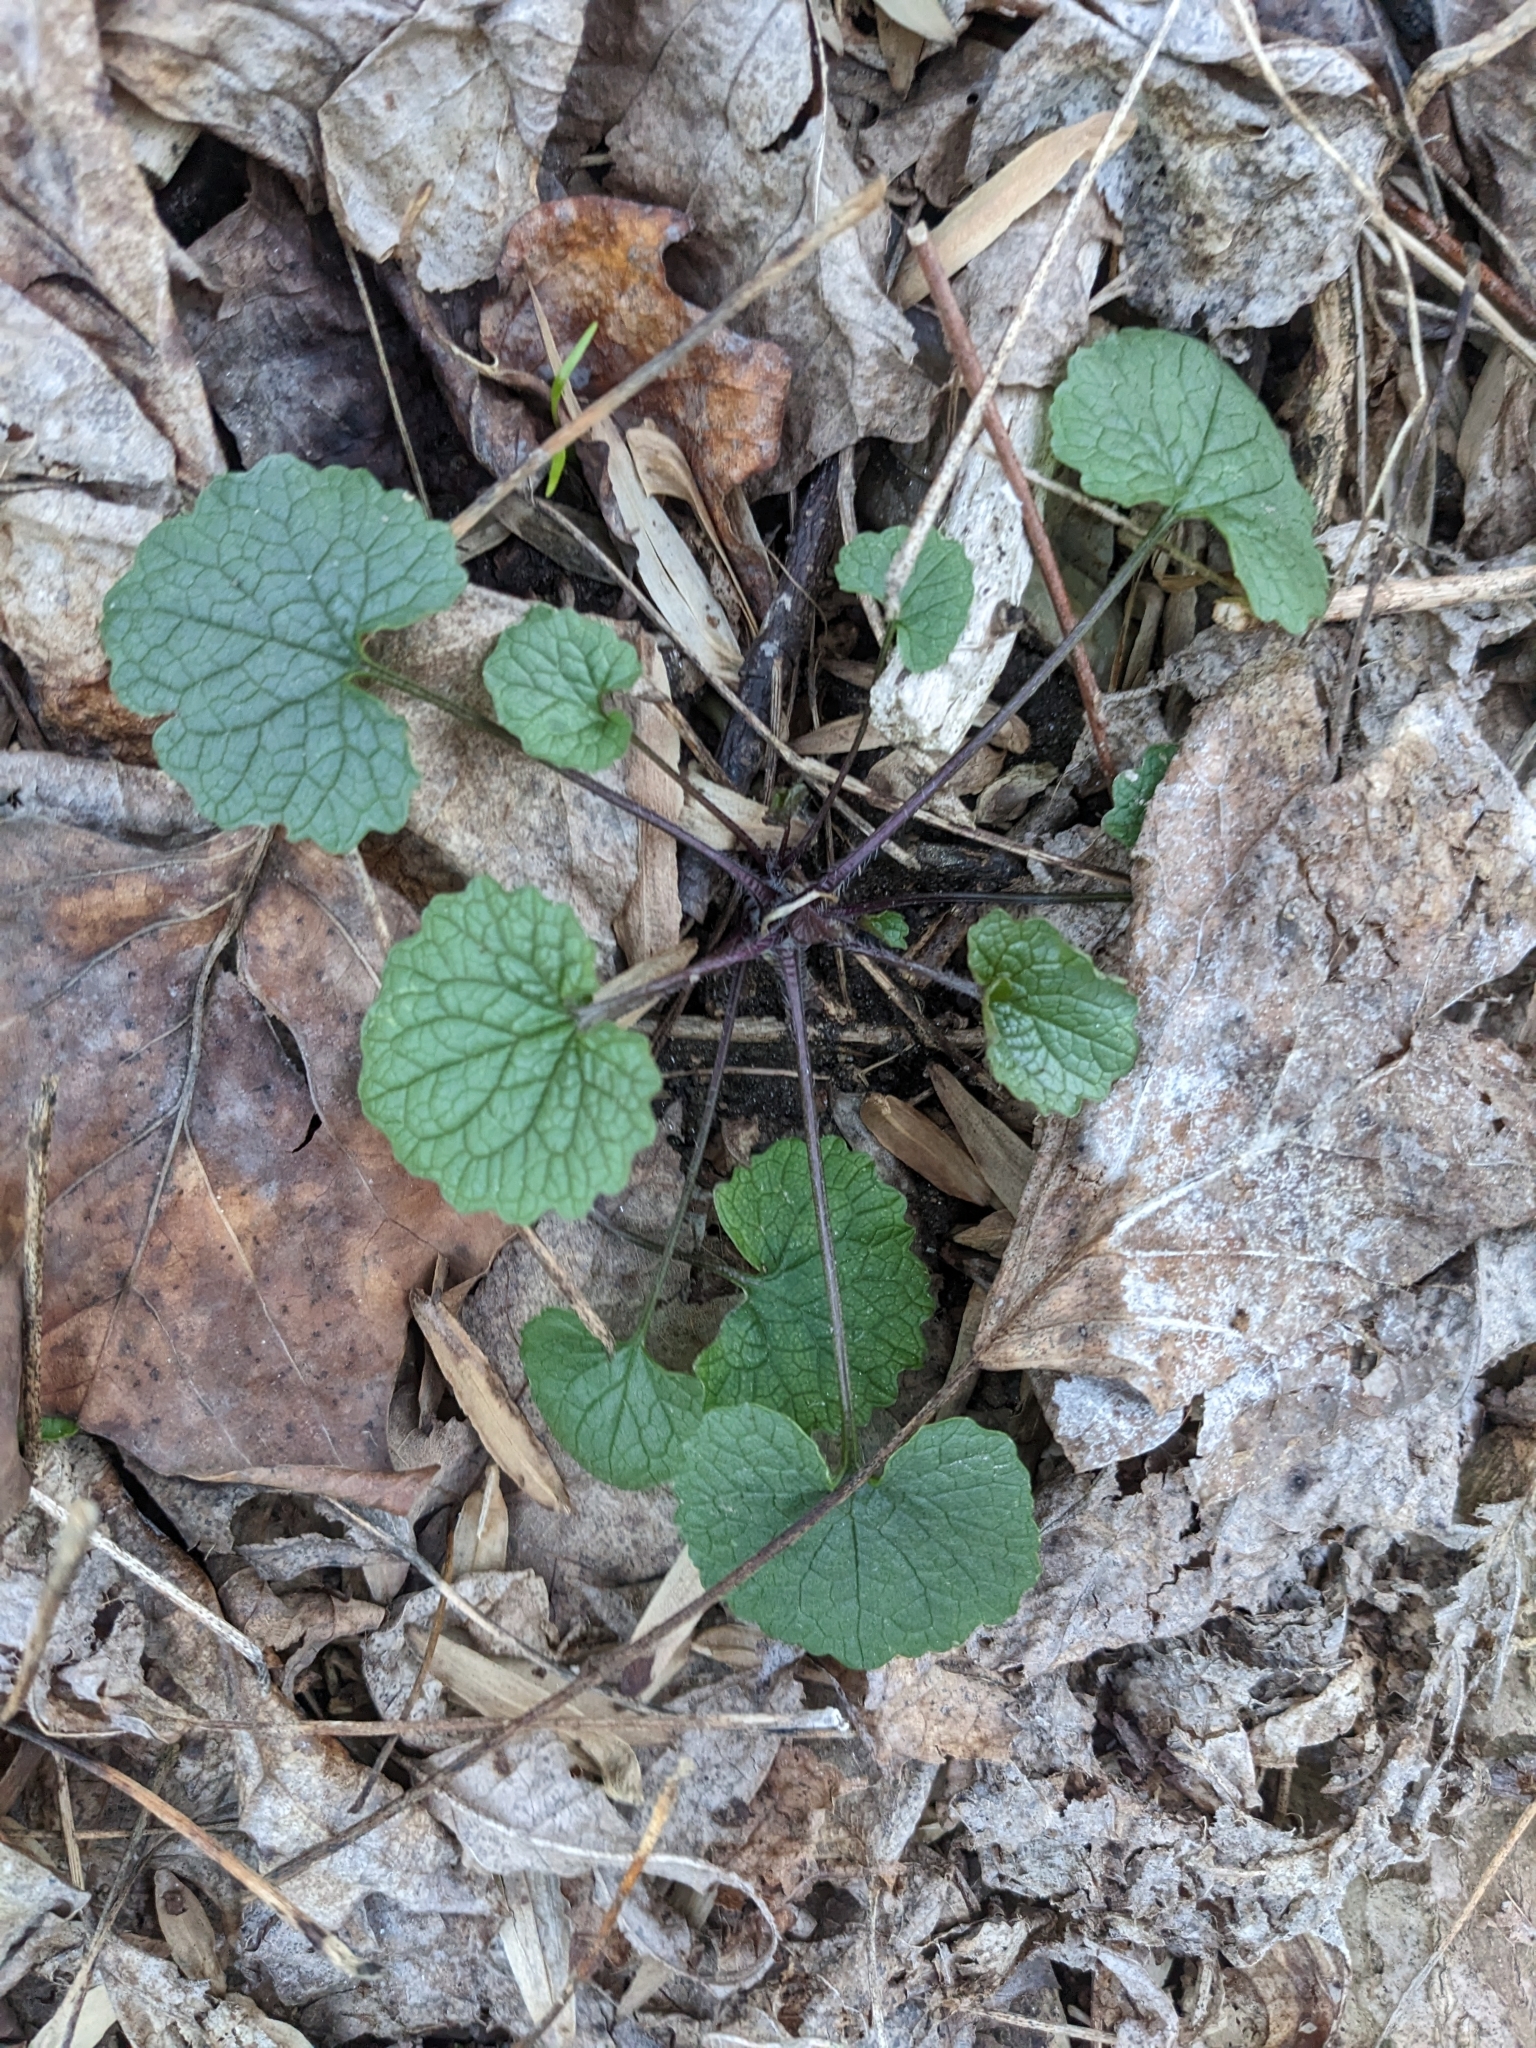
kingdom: Plantae
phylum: Tracheophyta
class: Magnoliopsida
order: Brassicales
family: Brassicaceae
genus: Alliaria
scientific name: Alliaria petiolata
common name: Garlic mustard
